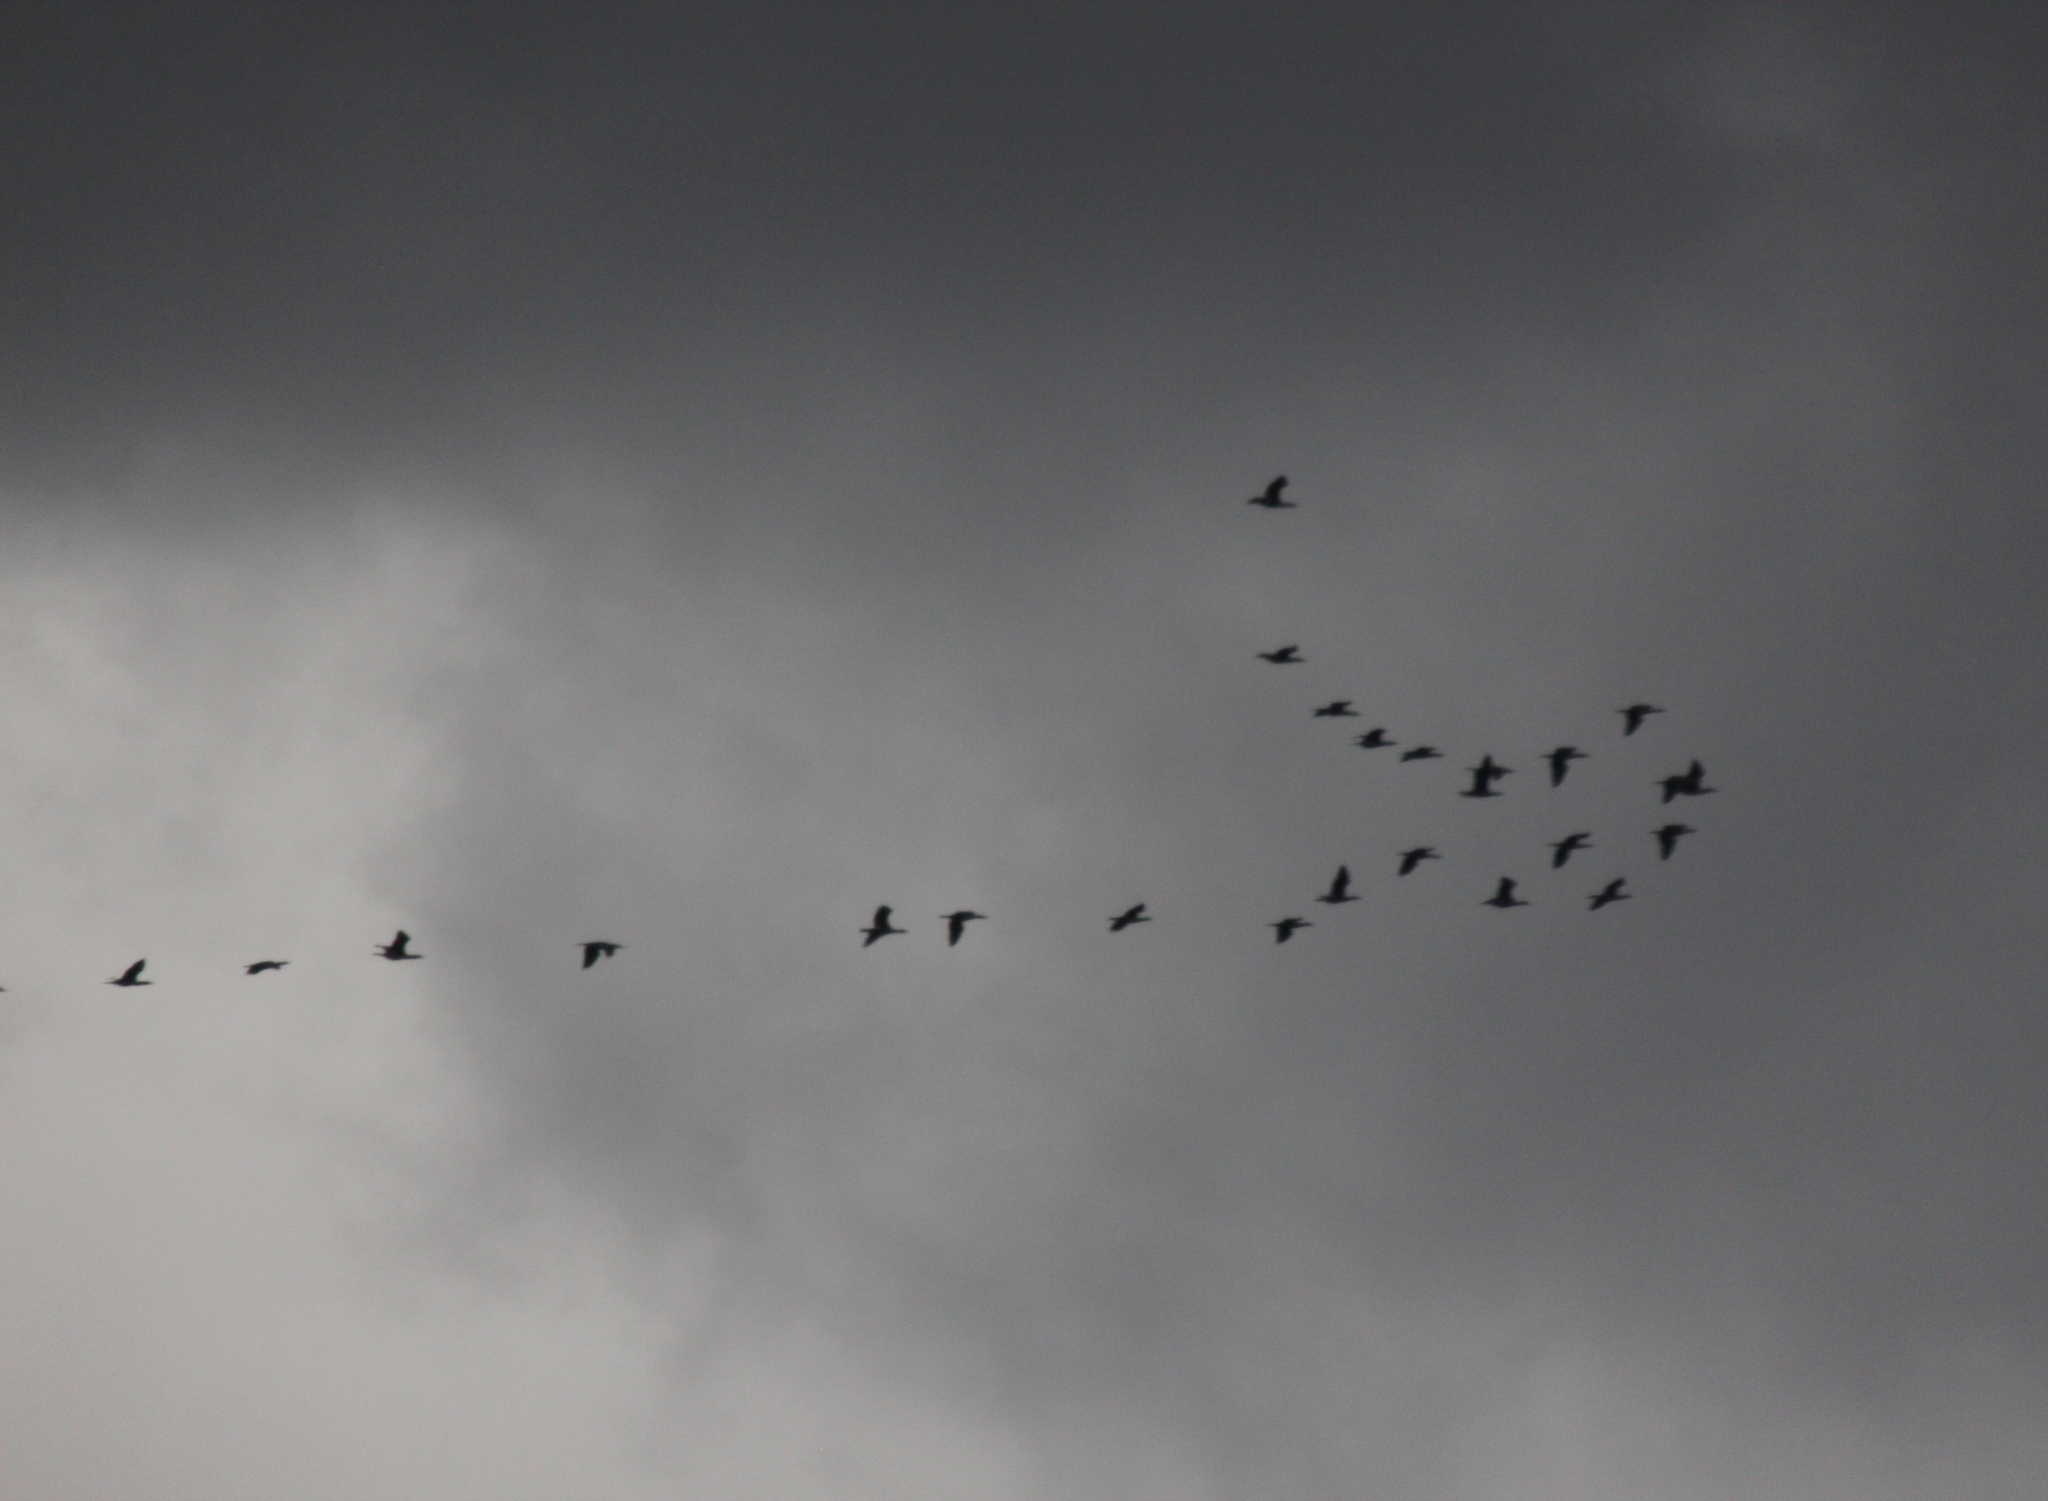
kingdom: Animalia
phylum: Chordata
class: Aves
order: Suliformes
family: Phalacrocoracidae
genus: Phalacrocorax
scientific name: Phalacrocorax carbo
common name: Great cormorant
